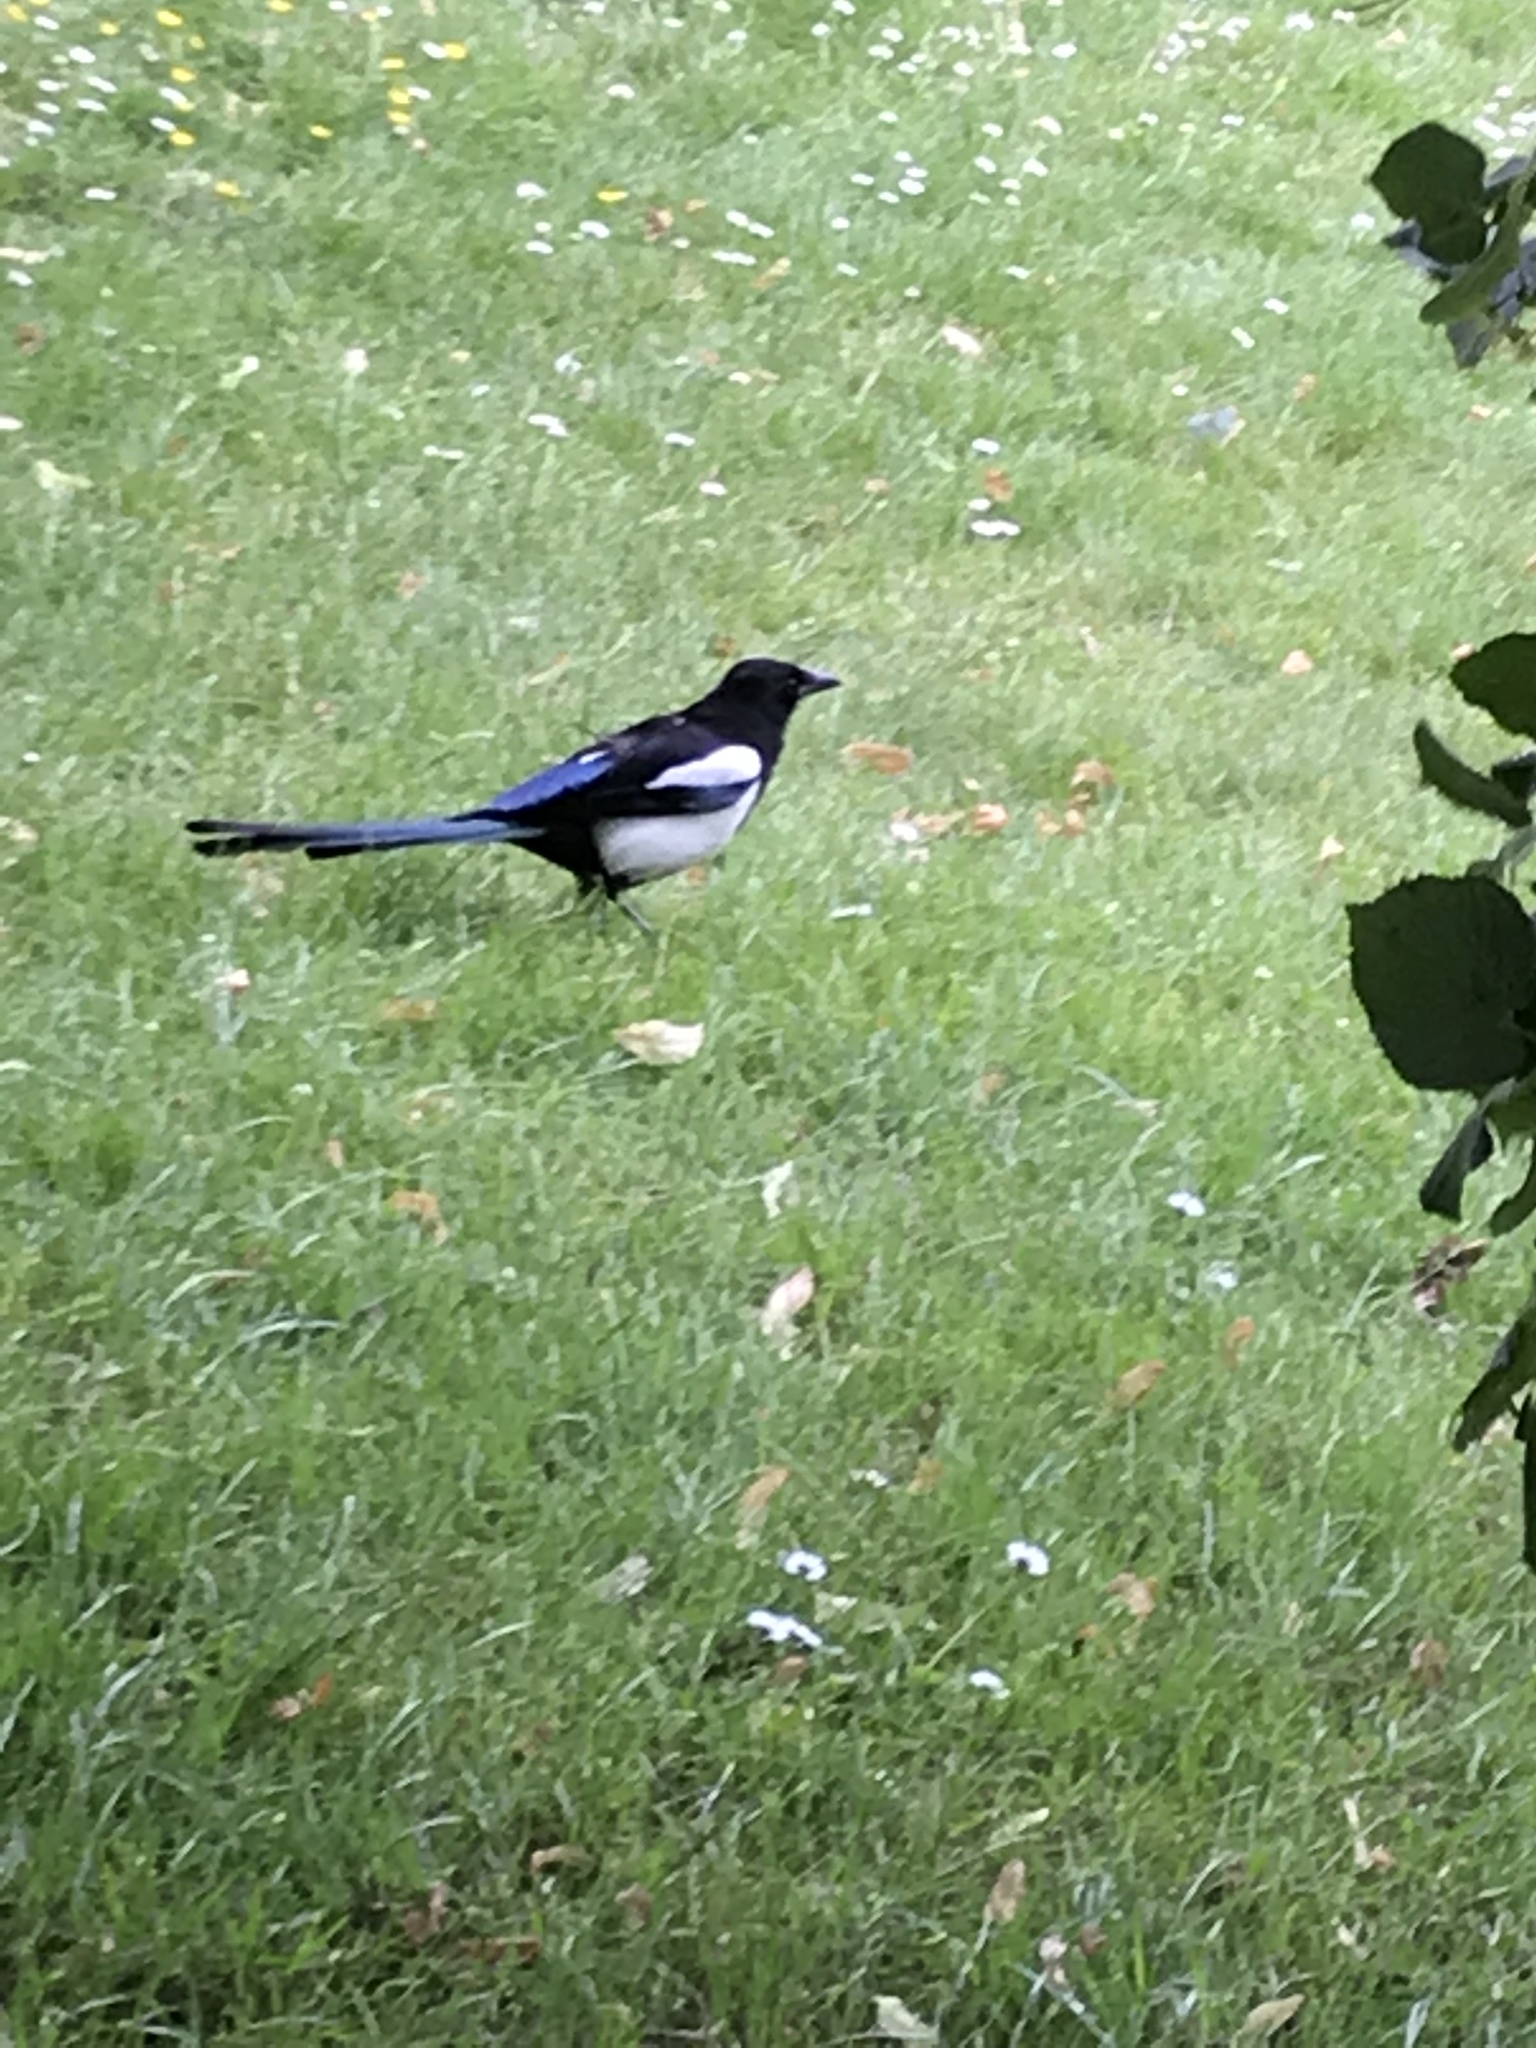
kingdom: Animalia
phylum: Chordata
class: Aves
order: Passeriformes
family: Corvidae
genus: Pica
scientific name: Pica pica
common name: Eurasian magpie
